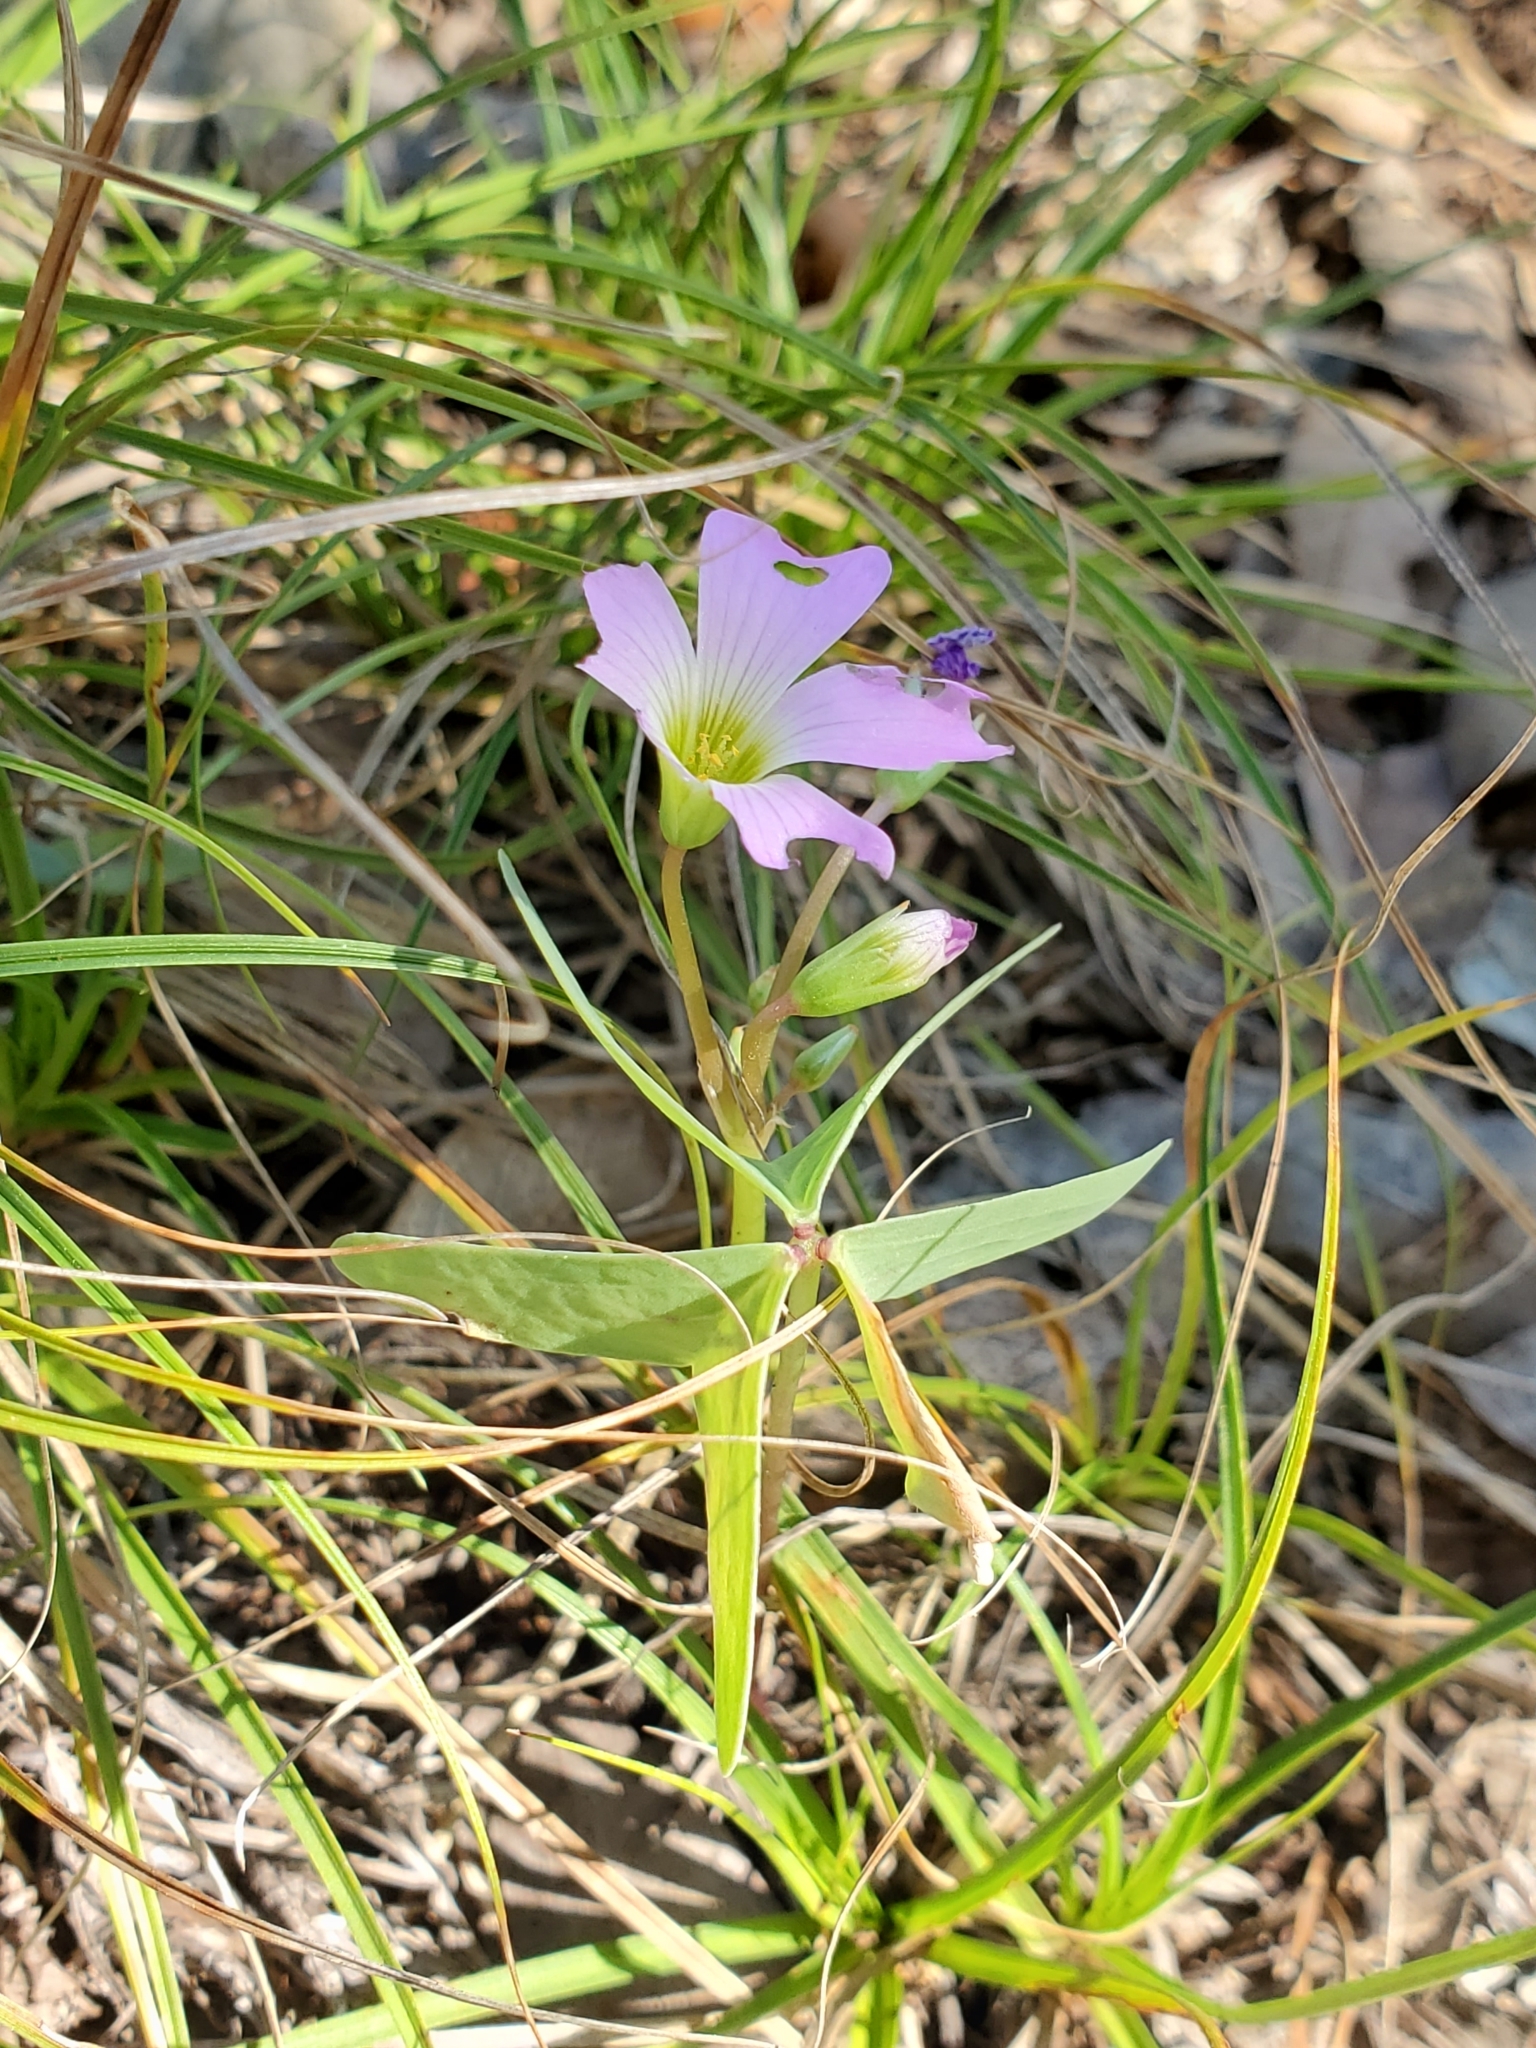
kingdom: Plantae
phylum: Tracheophyta
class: Magnoliopsida
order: Oxalidales
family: Oxalidaceae
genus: Oxalis
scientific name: Oxalis drummondii
